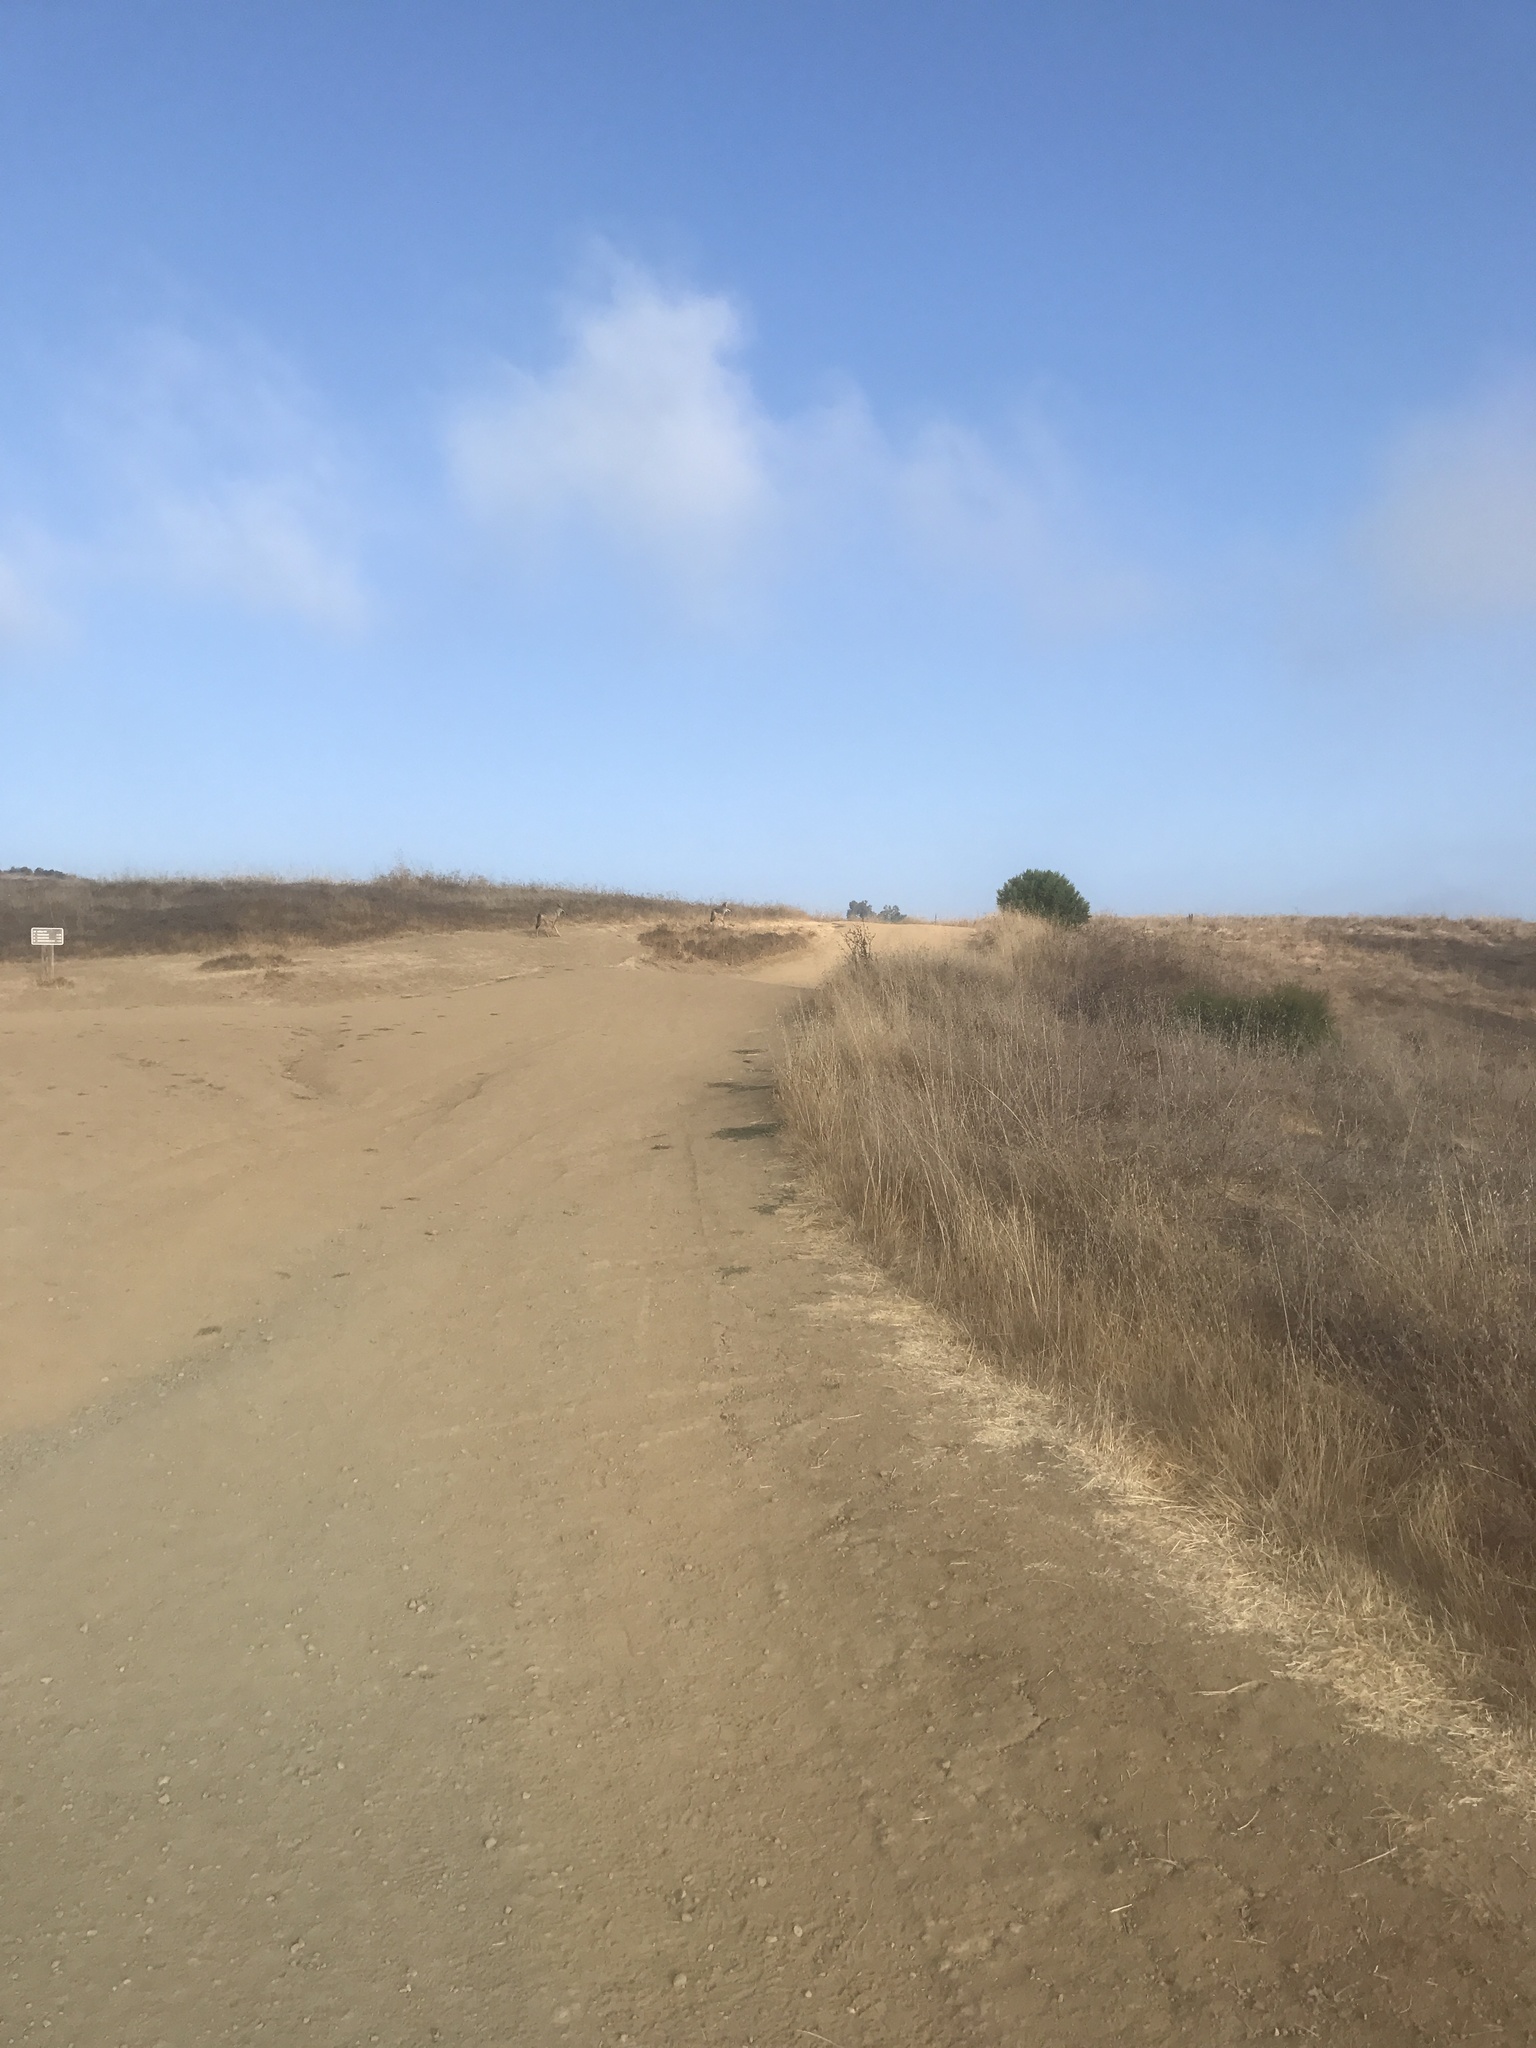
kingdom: Animalia
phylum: Chordata
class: Mammalia
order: Carnivora
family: Canidae
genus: Canis
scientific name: Canis latrans
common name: Coyote
